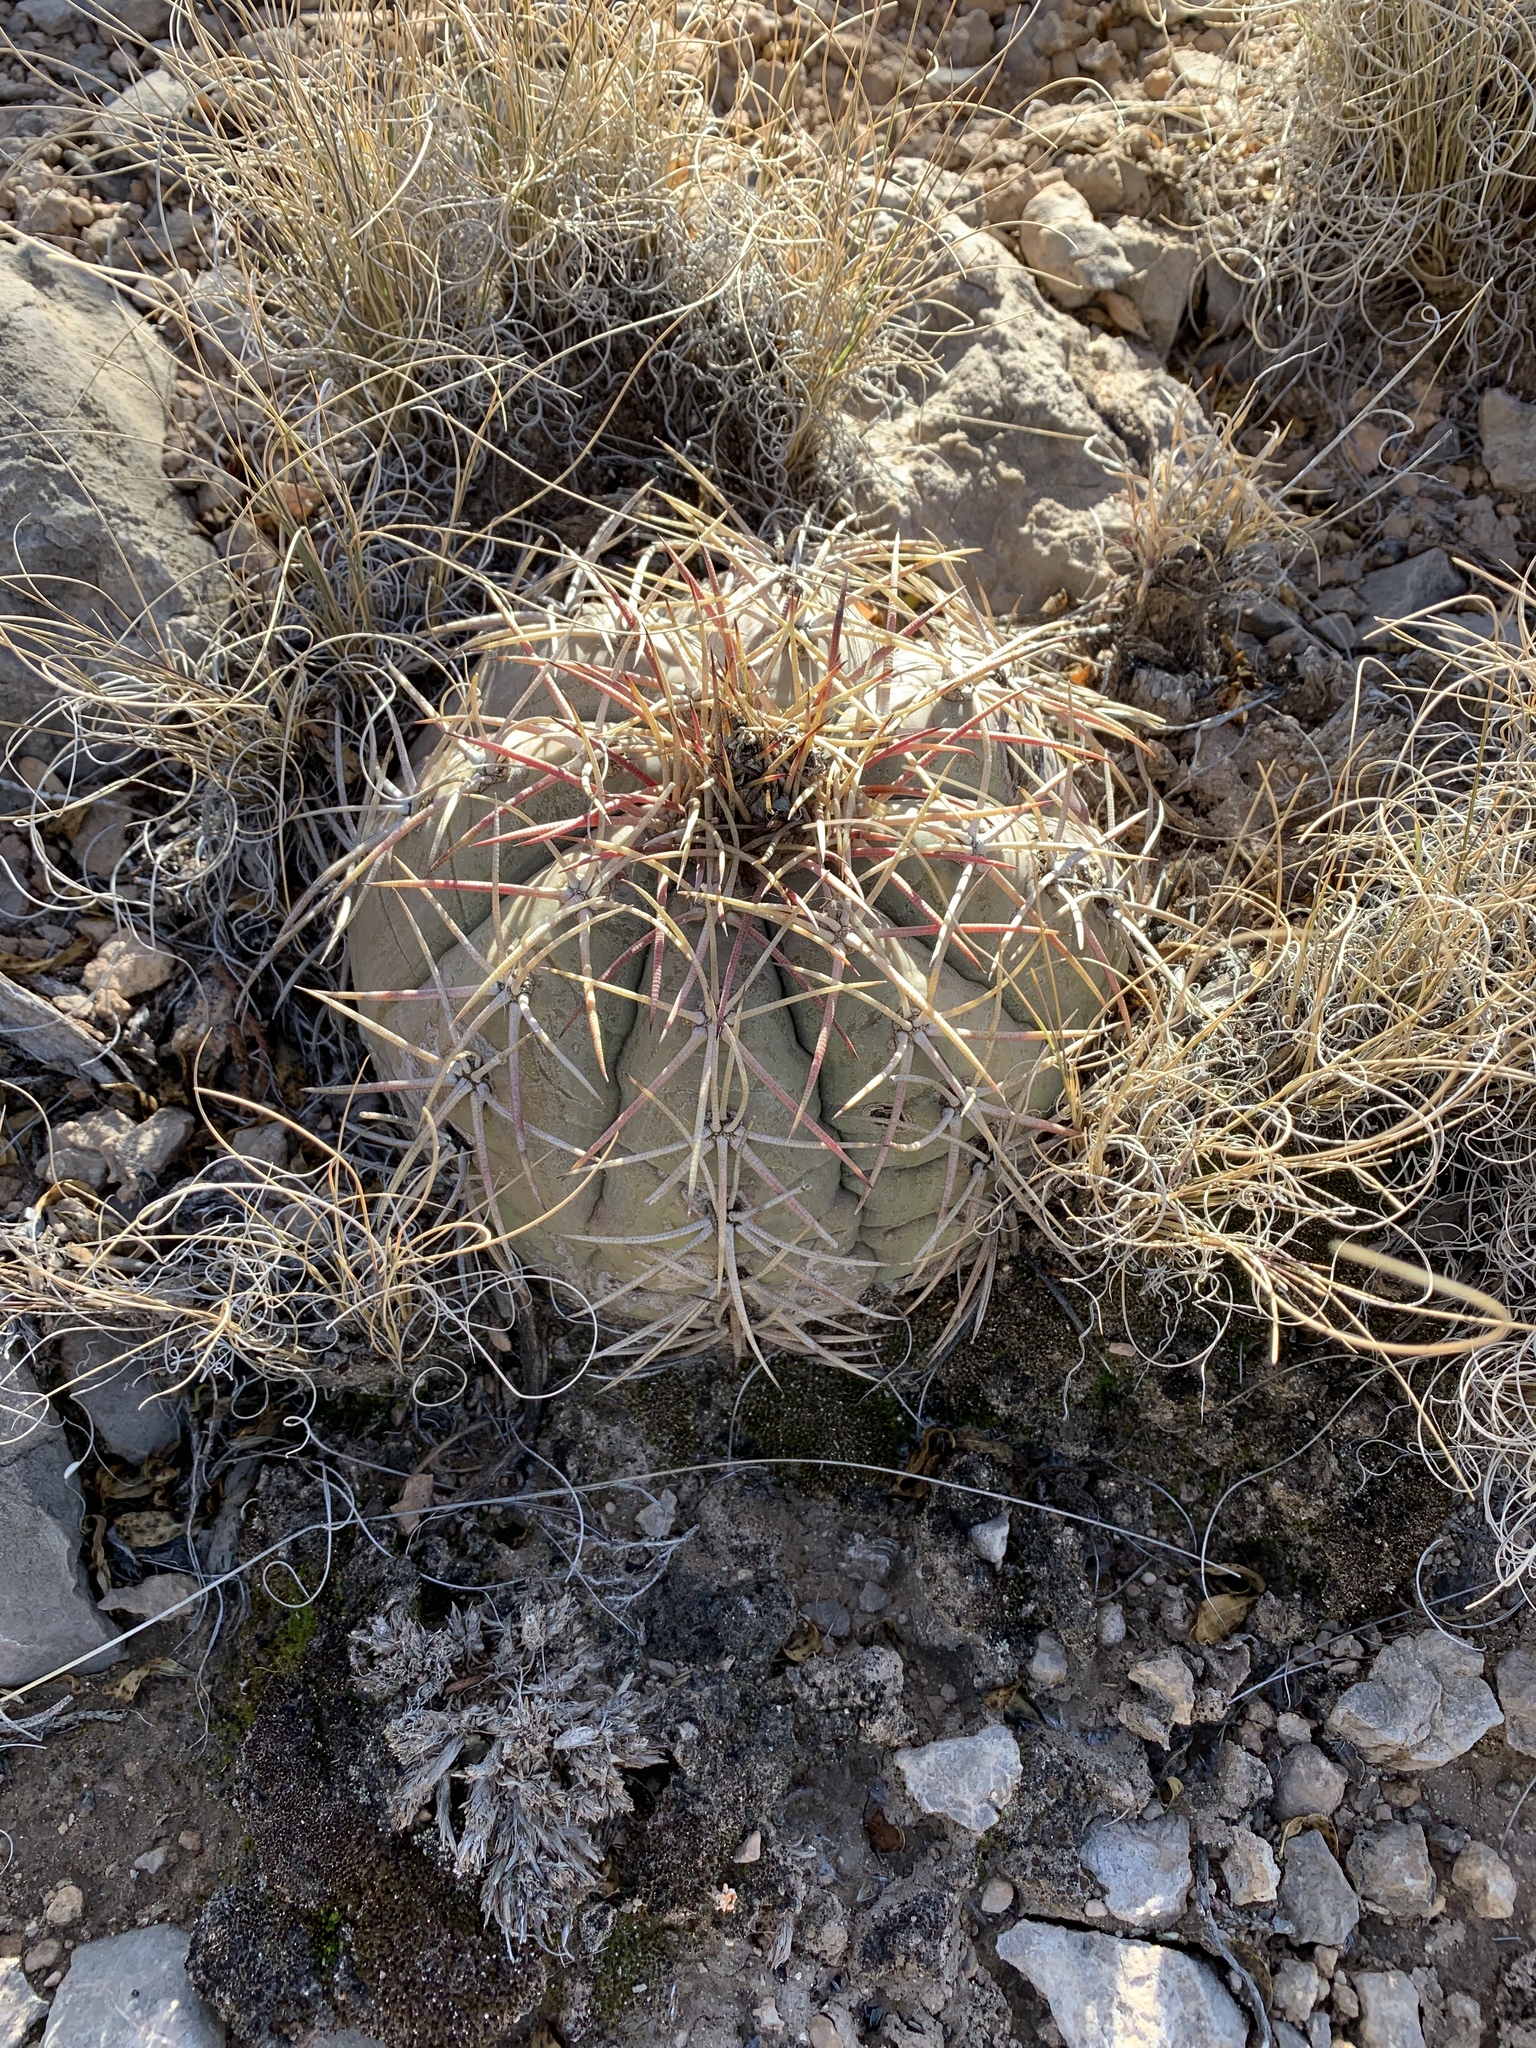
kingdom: Plantae
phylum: Tracheophyta
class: Magnoliopsida
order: Caryophyllales
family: Cactaceae
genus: Echinocactus
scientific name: Echinocactus horizonthalonius
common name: Devilshead
